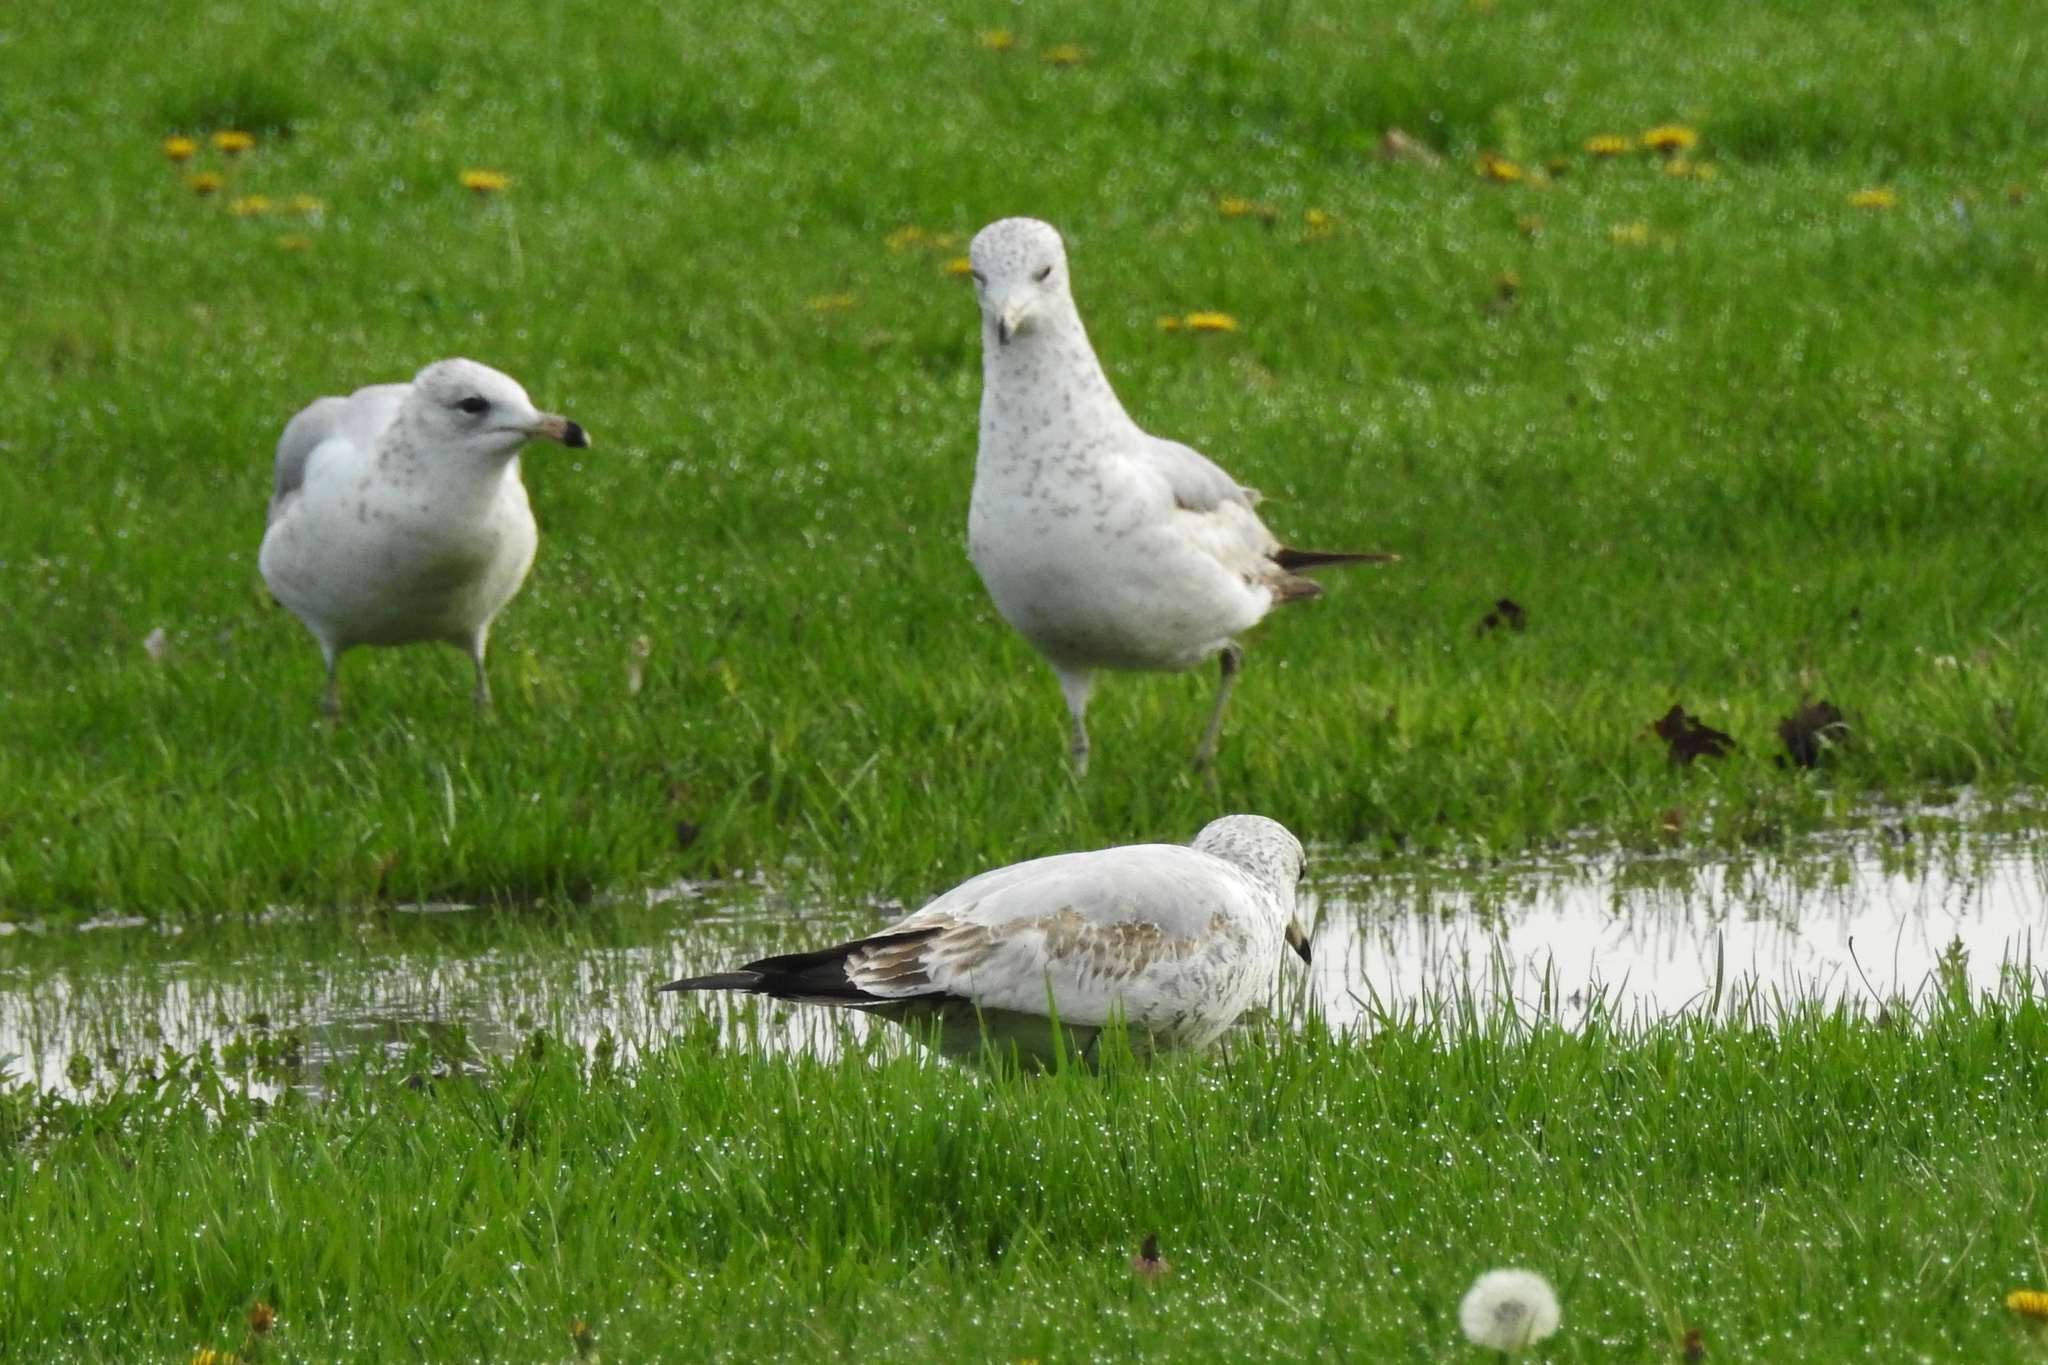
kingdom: Animalia
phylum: Chordata
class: Aves
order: Charadriiformes
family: Laridae
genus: Larus
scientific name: Larus delawarensis
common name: Ring-billed gull
